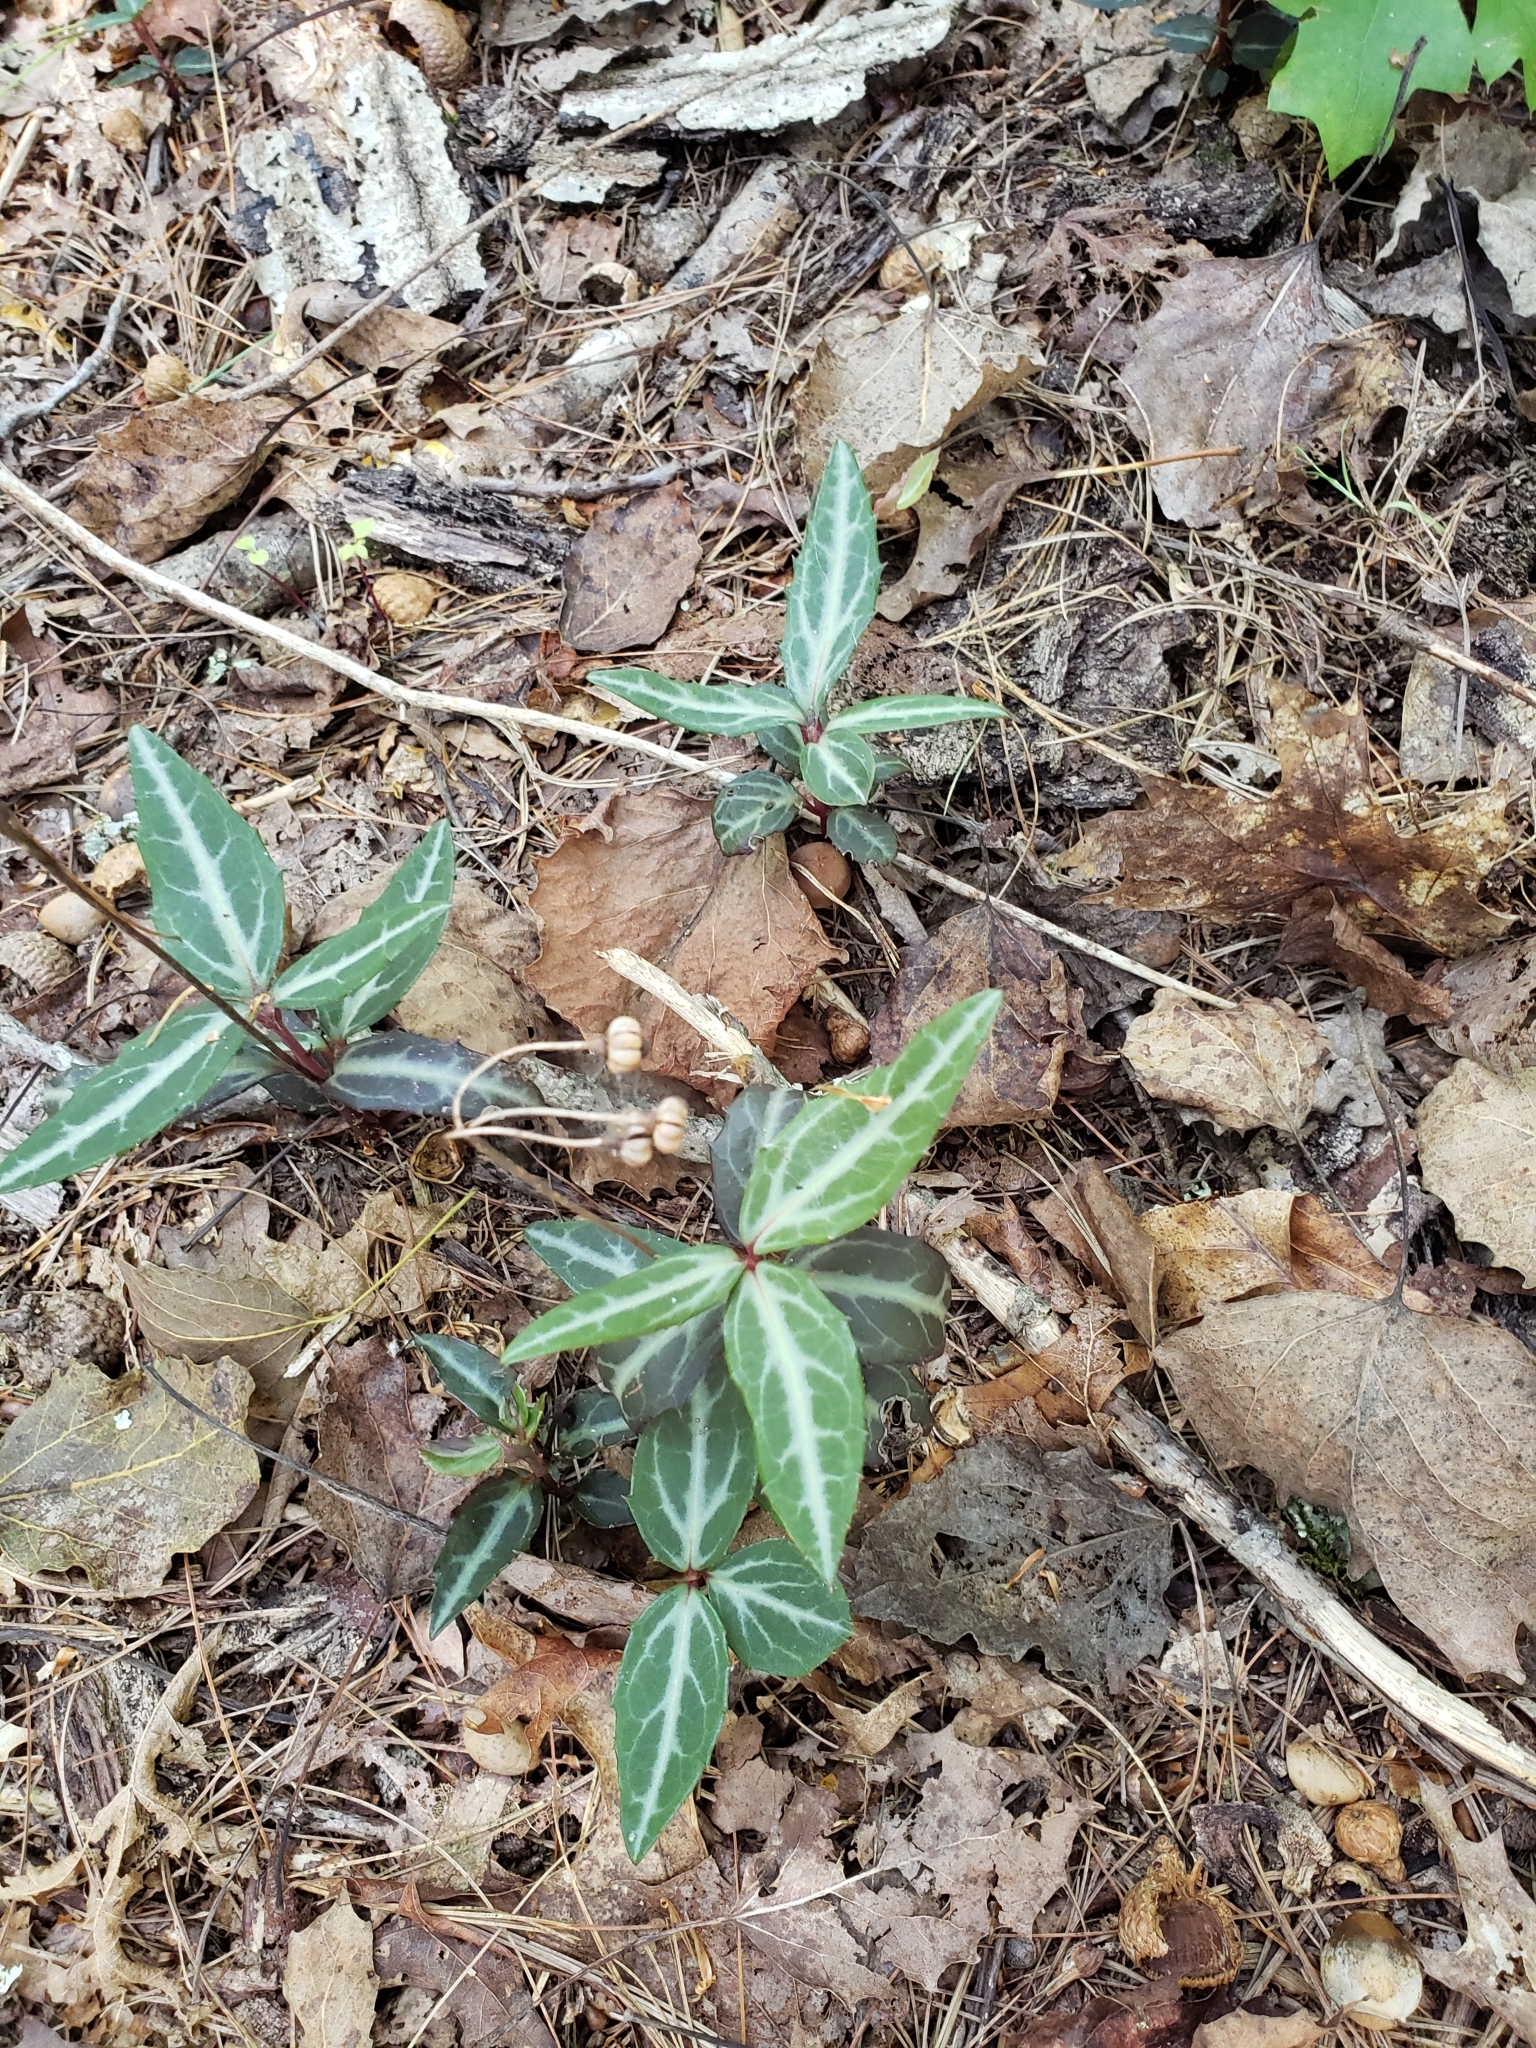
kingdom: Plantae
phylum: Tracheophyta
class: Magnoliopsida
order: Ericales
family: Ericaceae
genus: Chimaphila
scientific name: Chimaphila maculata
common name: Spotted pipsissewa
